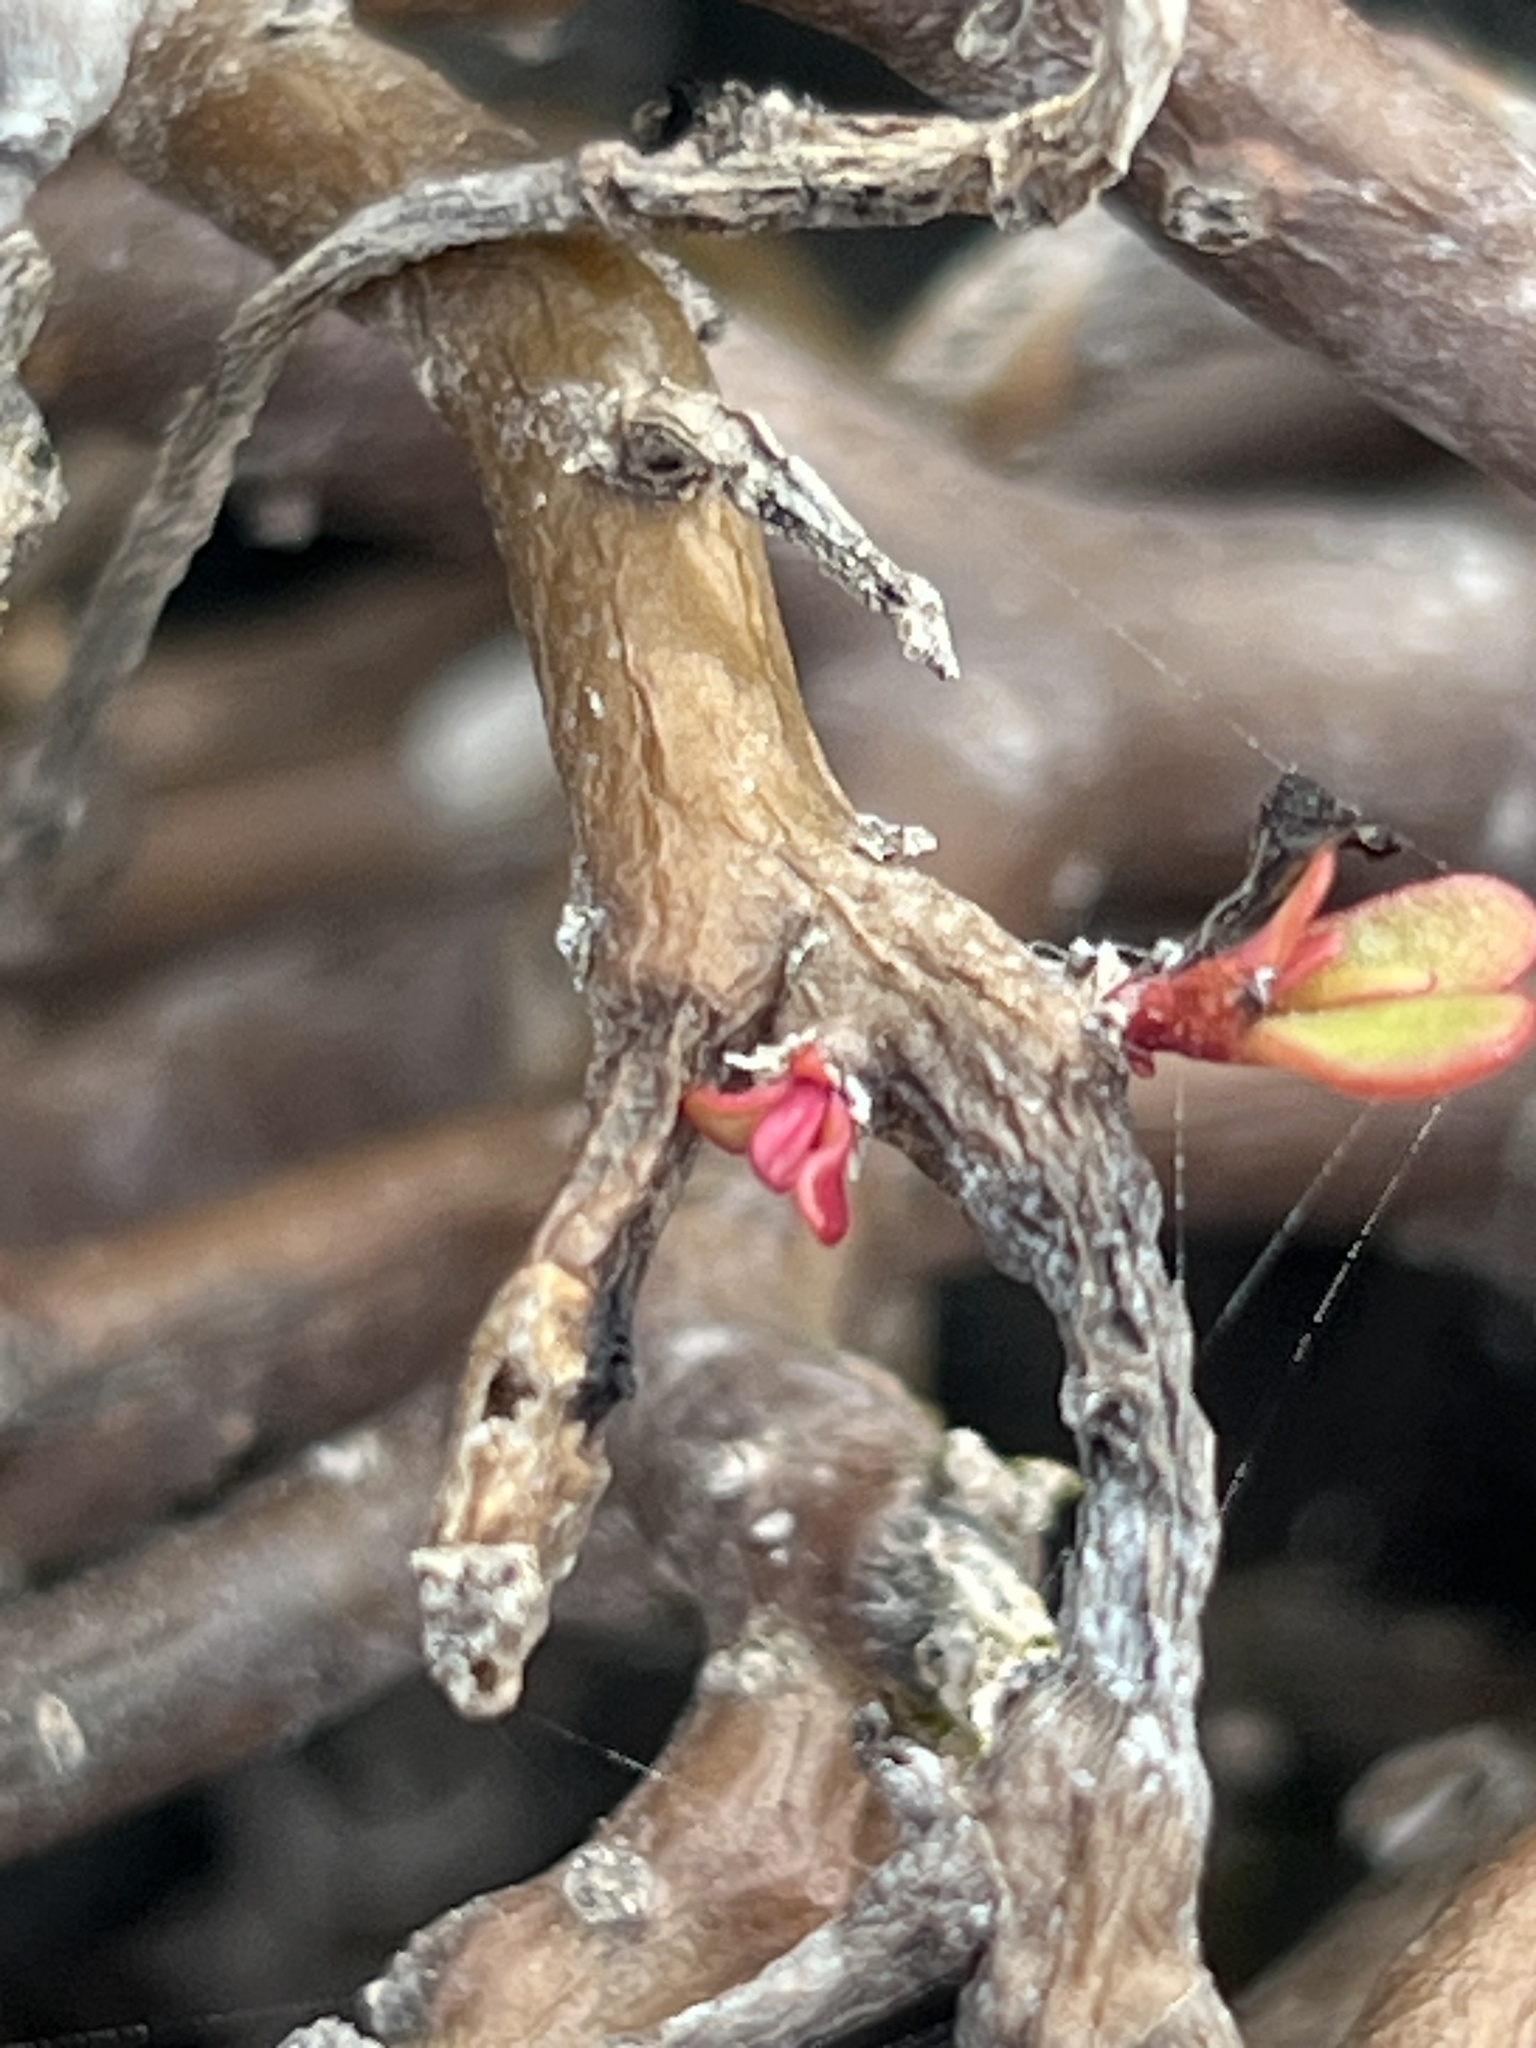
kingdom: Plantae
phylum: Tracheophyta
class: Magnoliopsida
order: Caryophyllales
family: Portulacaceae
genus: Portulaca
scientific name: Portulaca howellii
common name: Galapagos purslane
